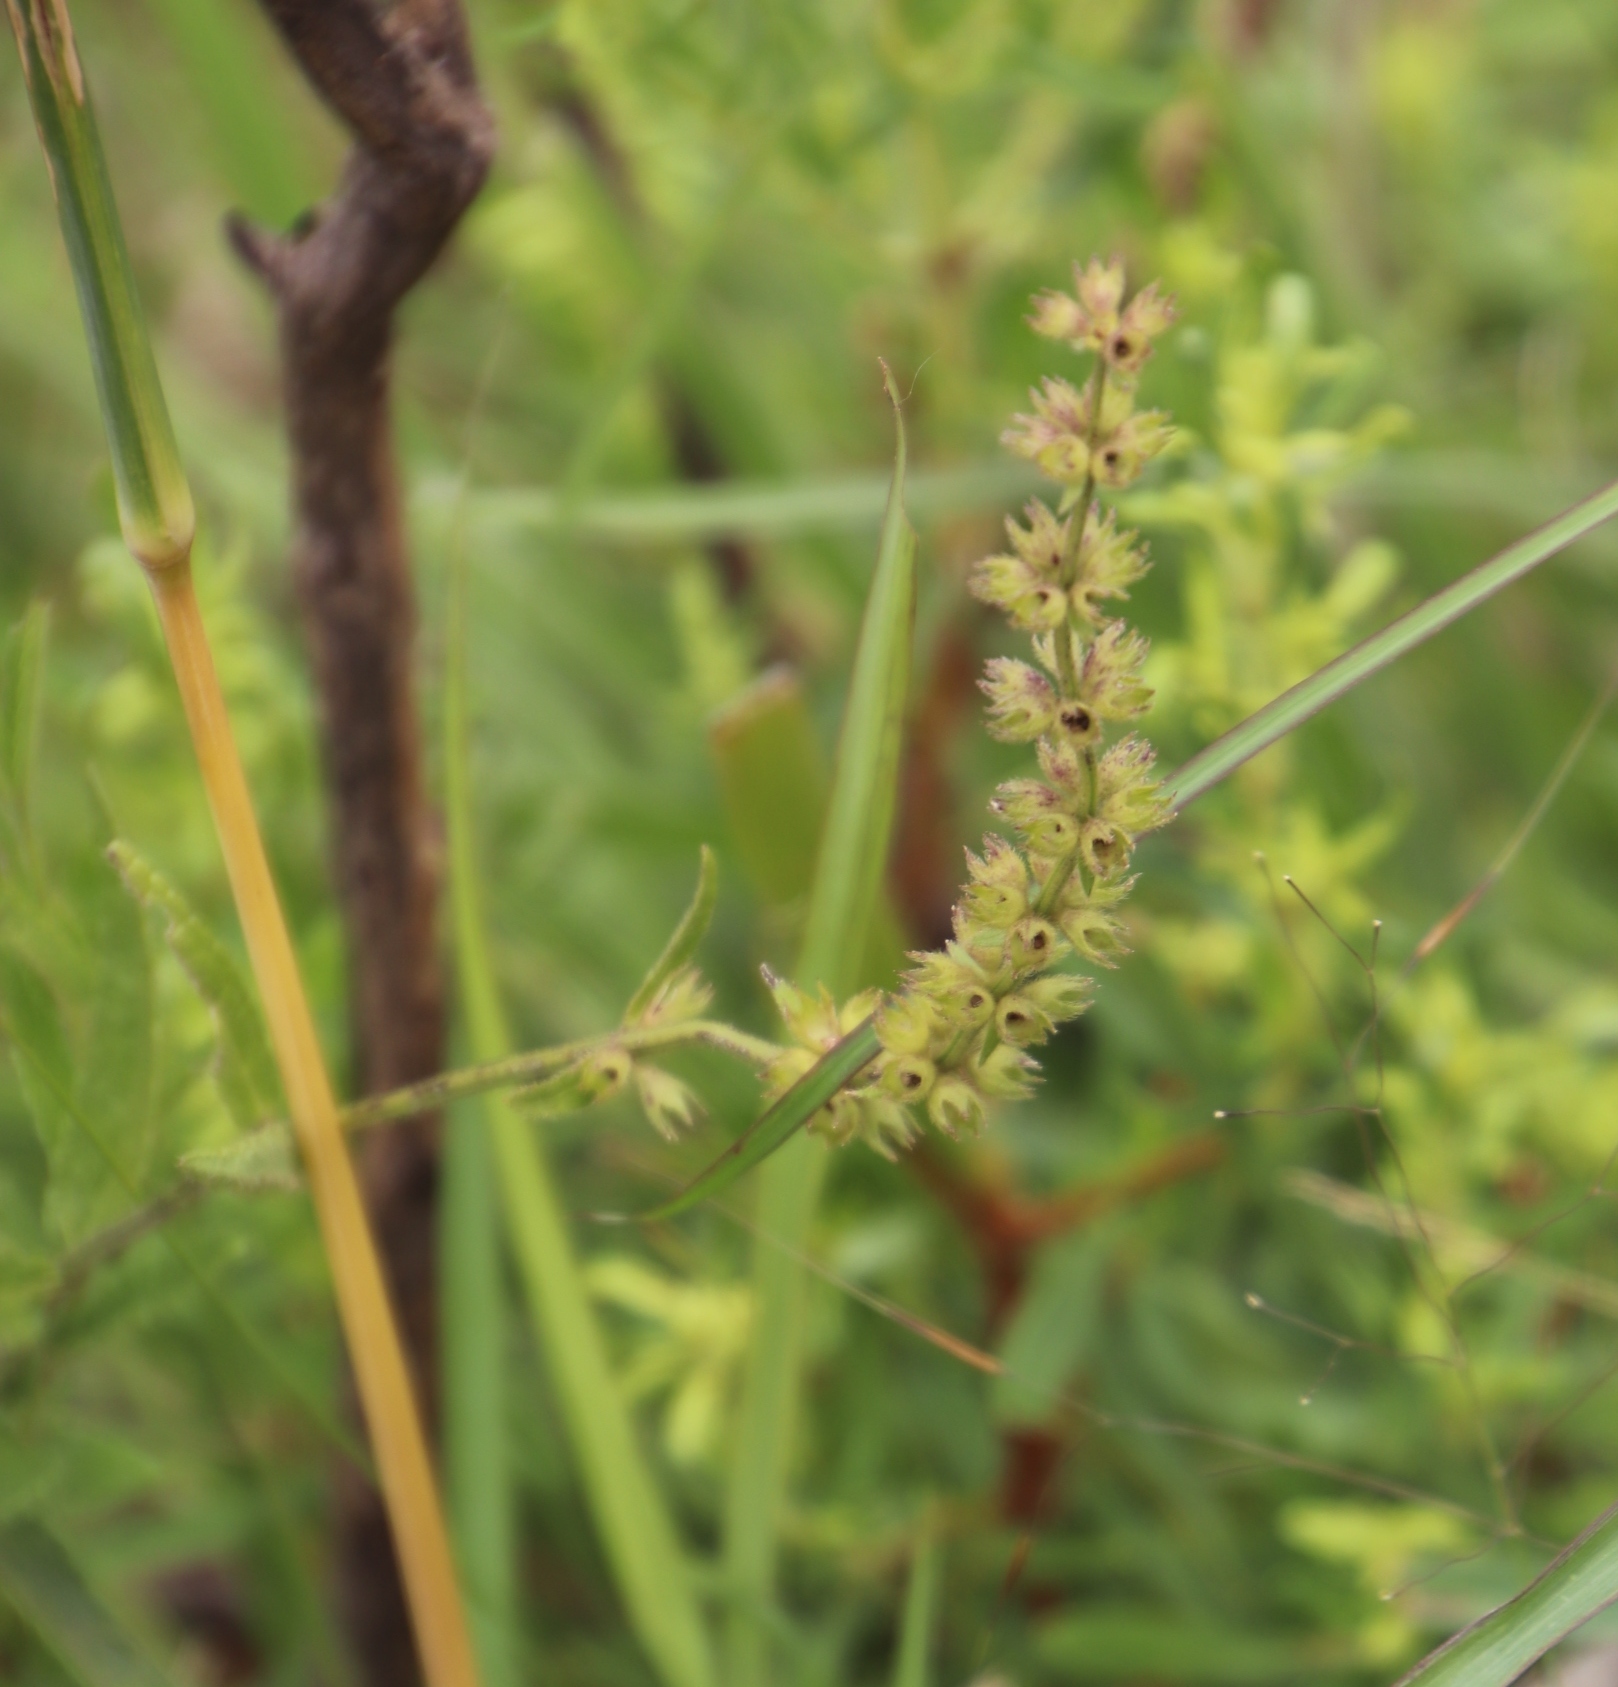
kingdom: Plantae
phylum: Tracheophyta
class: Magnoliopsida
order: Lamiales
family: Lamiaceae
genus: Stachys
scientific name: Stachys nigricans
